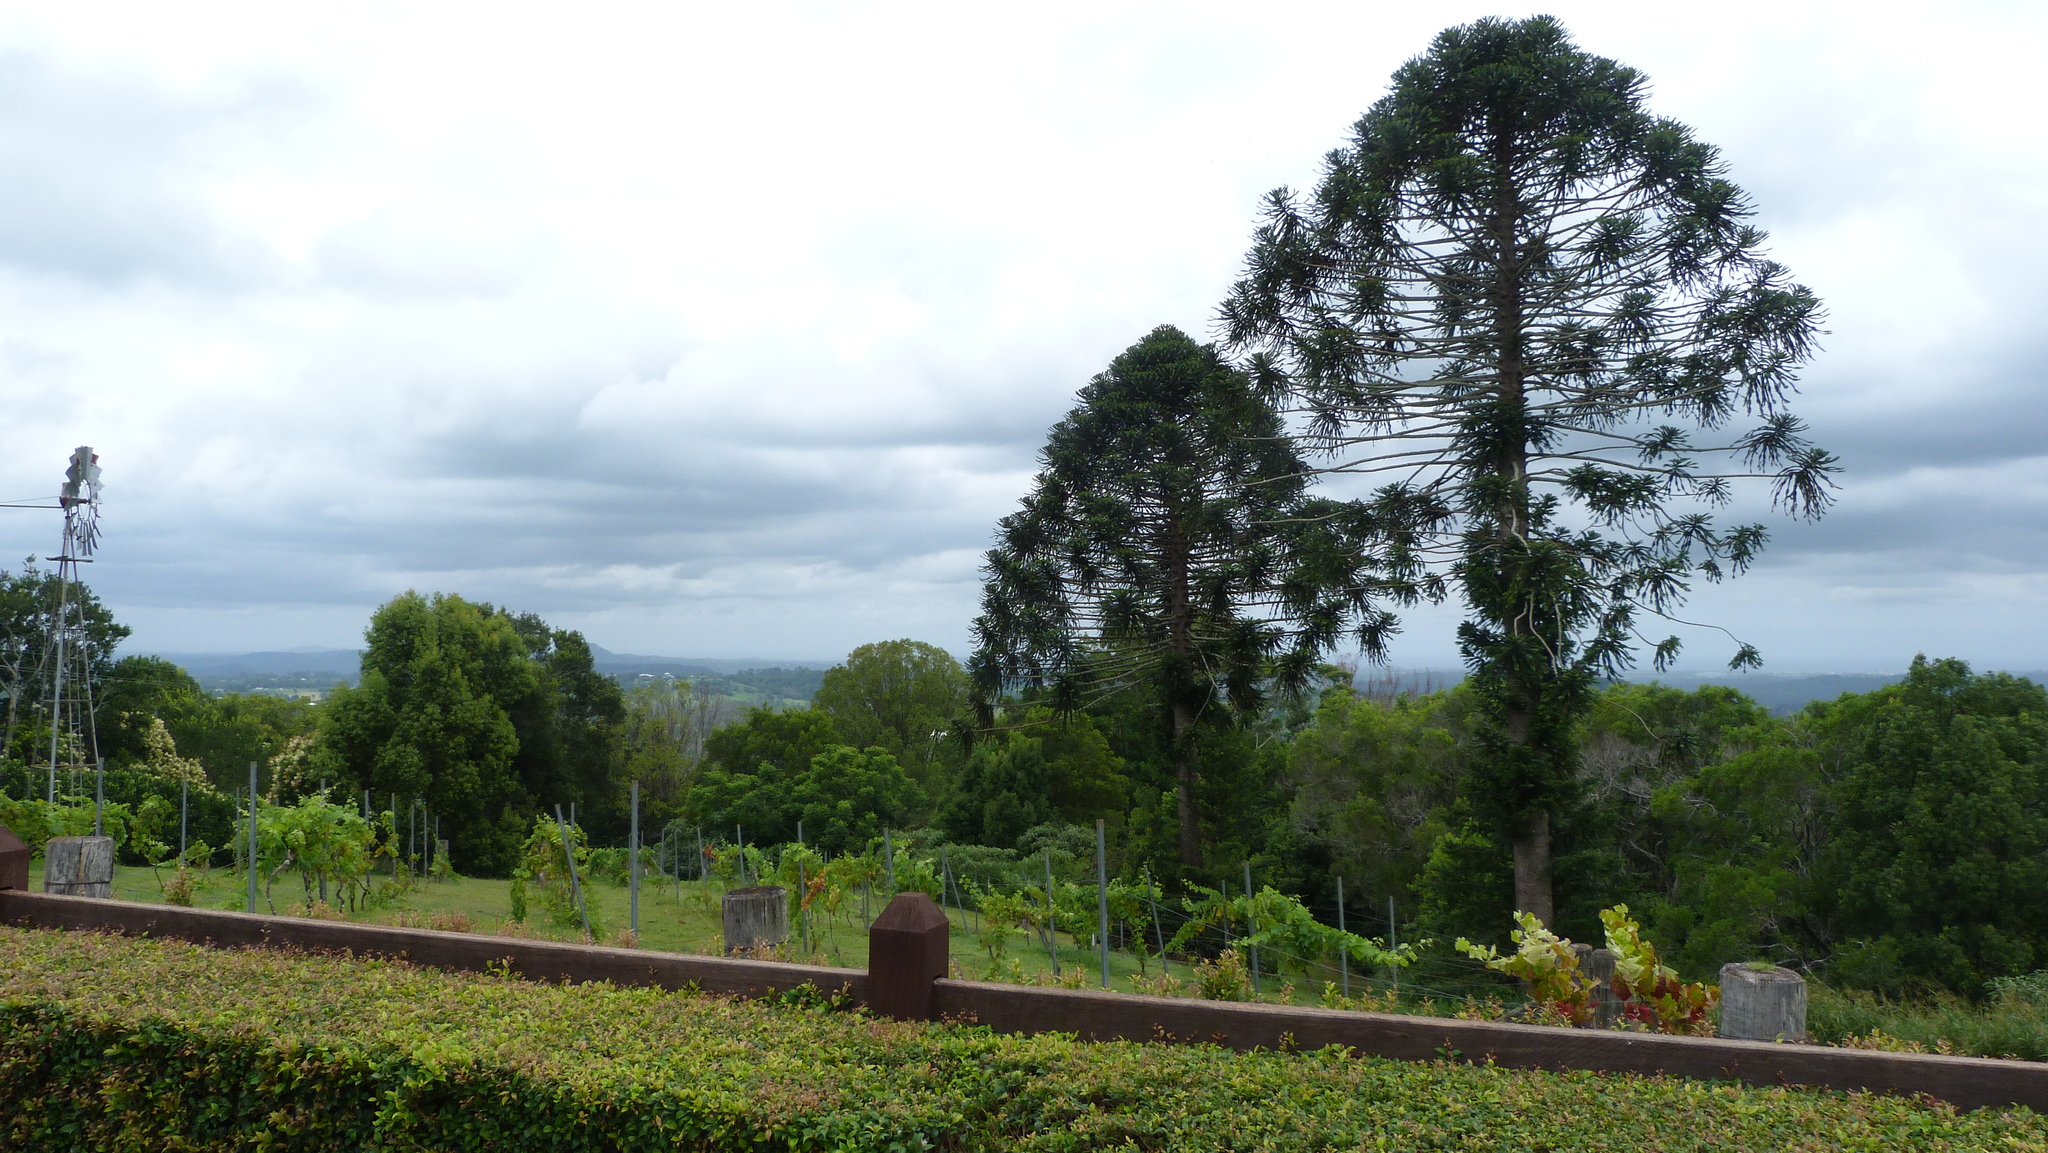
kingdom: Plantae
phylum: Tracheophyta
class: Pinopsida
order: Pinales
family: Araucariaceae
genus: Araucaria
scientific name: Araucaria bidwillii
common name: Moreton-bay-pine
